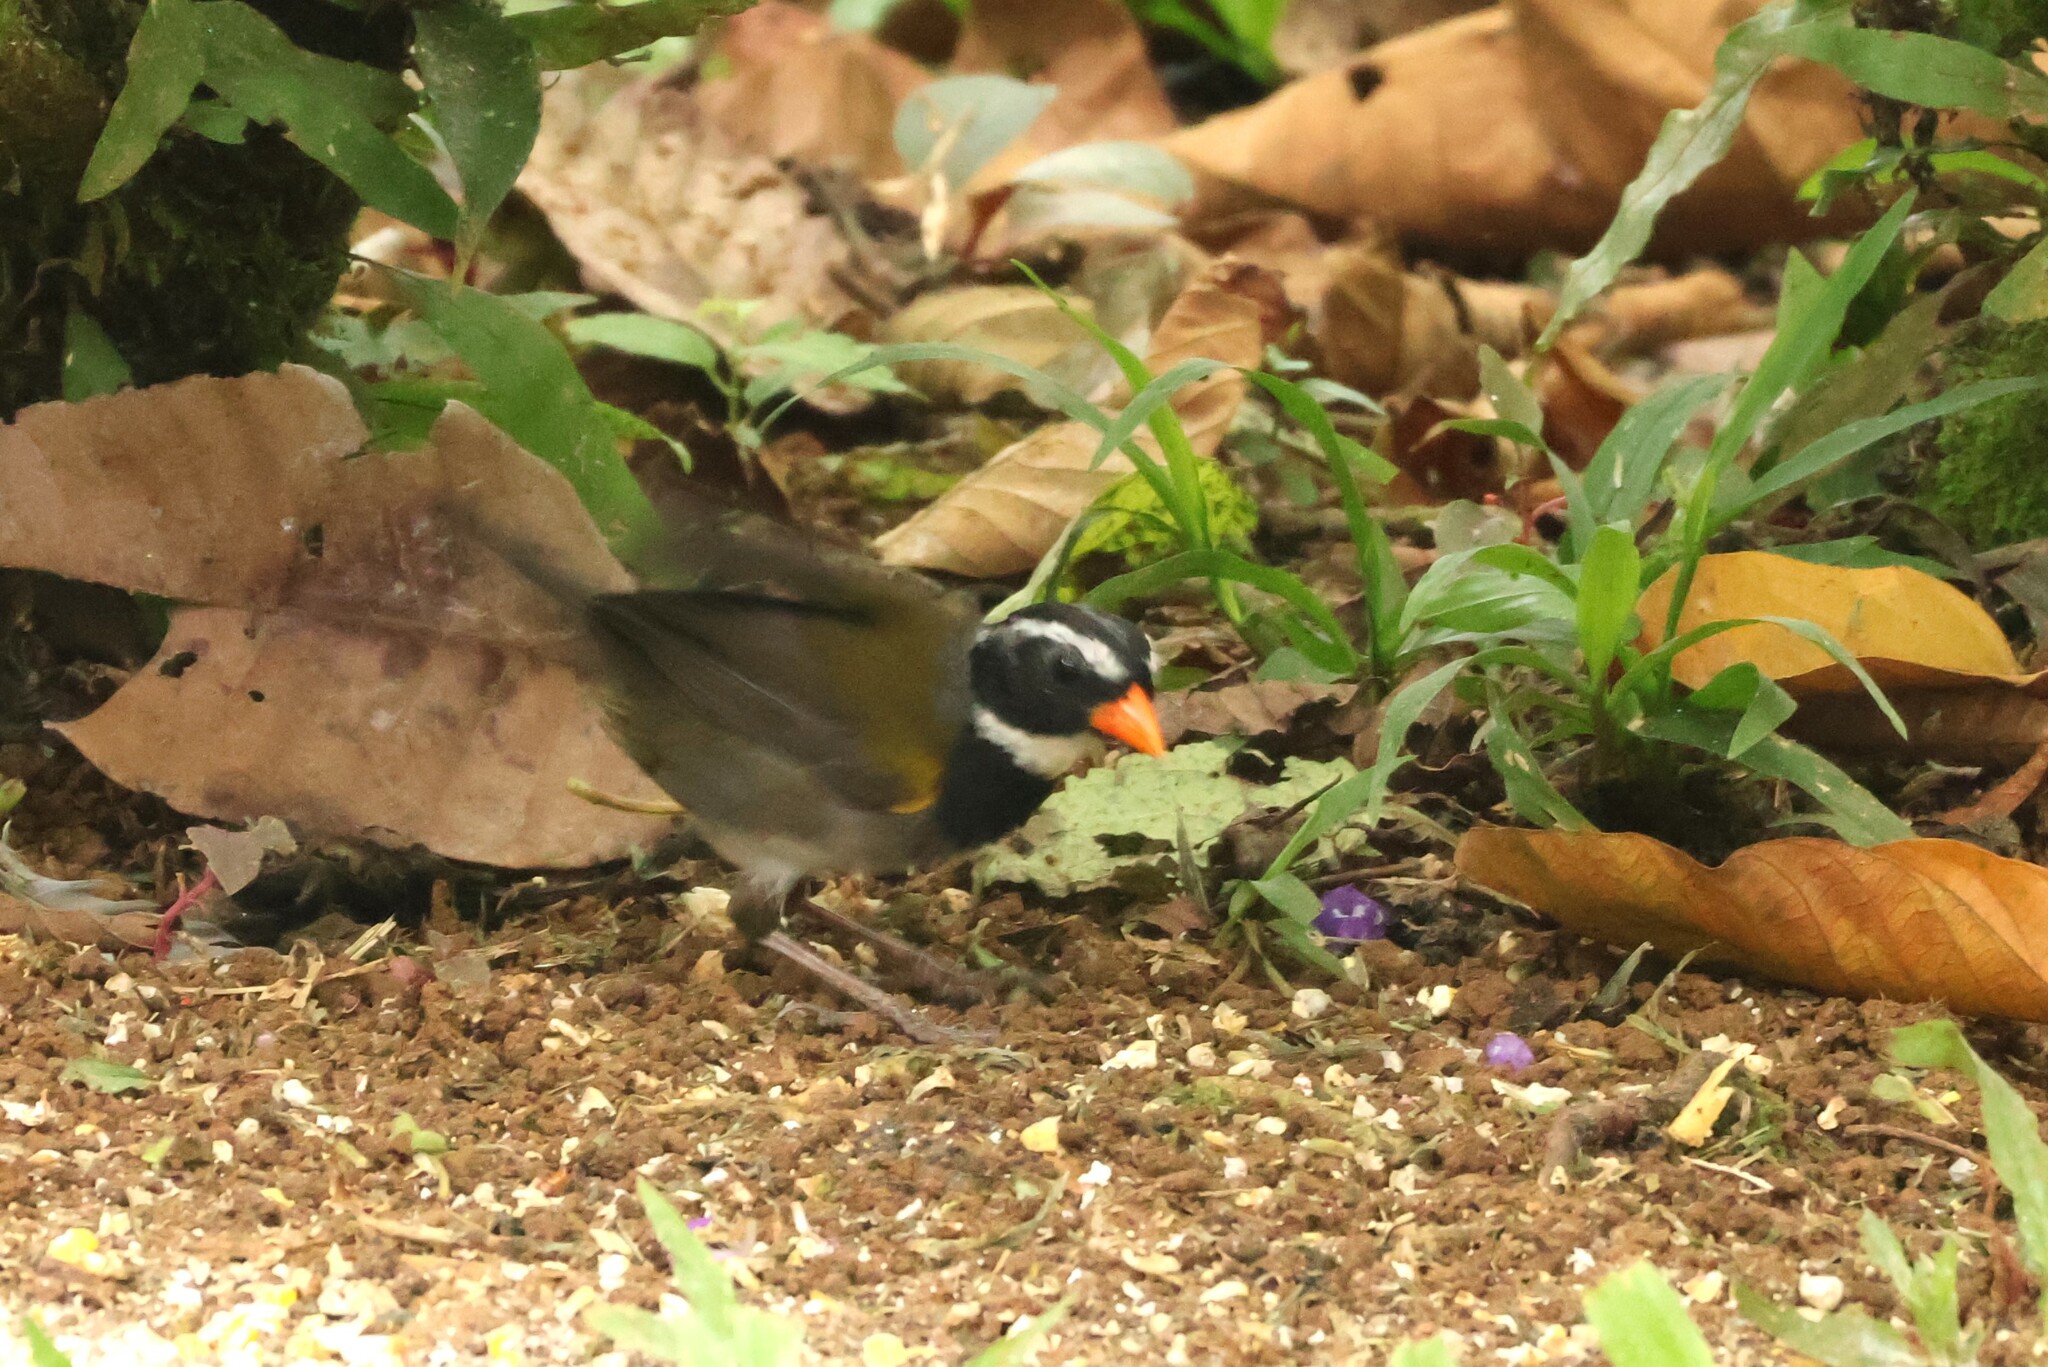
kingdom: Animalia
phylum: Chordata
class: Aves
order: Passeriformes
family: Passerellidae
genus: Arremon
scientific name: Arremon aurantiirostris
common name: Orange-billed sparrow
